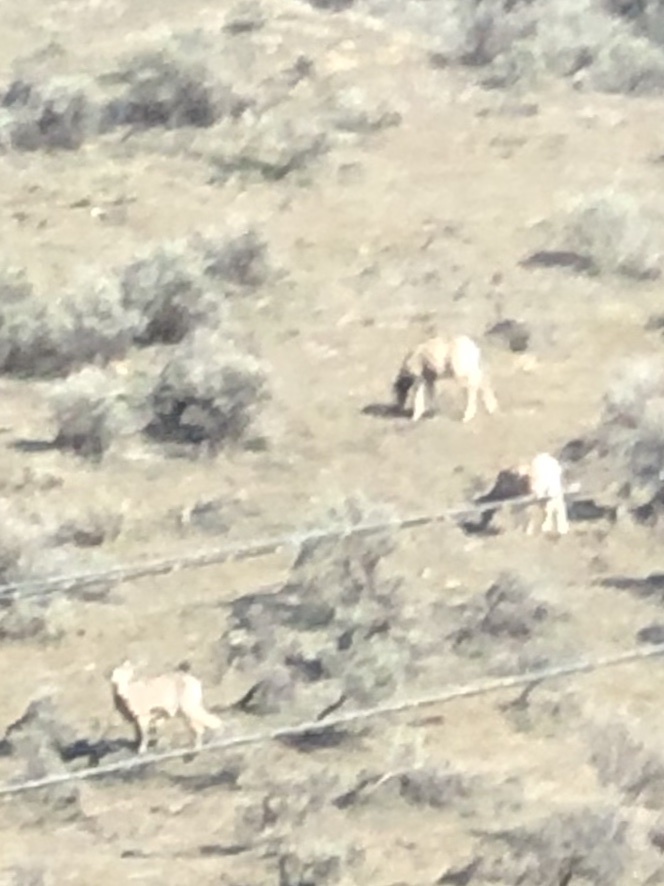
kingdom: Animalia
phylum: Chordata
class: Mammalia
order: Artiodactyla
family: Bovidae
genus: Ovis
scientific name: Ovis canadensis
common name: Bighorn sheep
